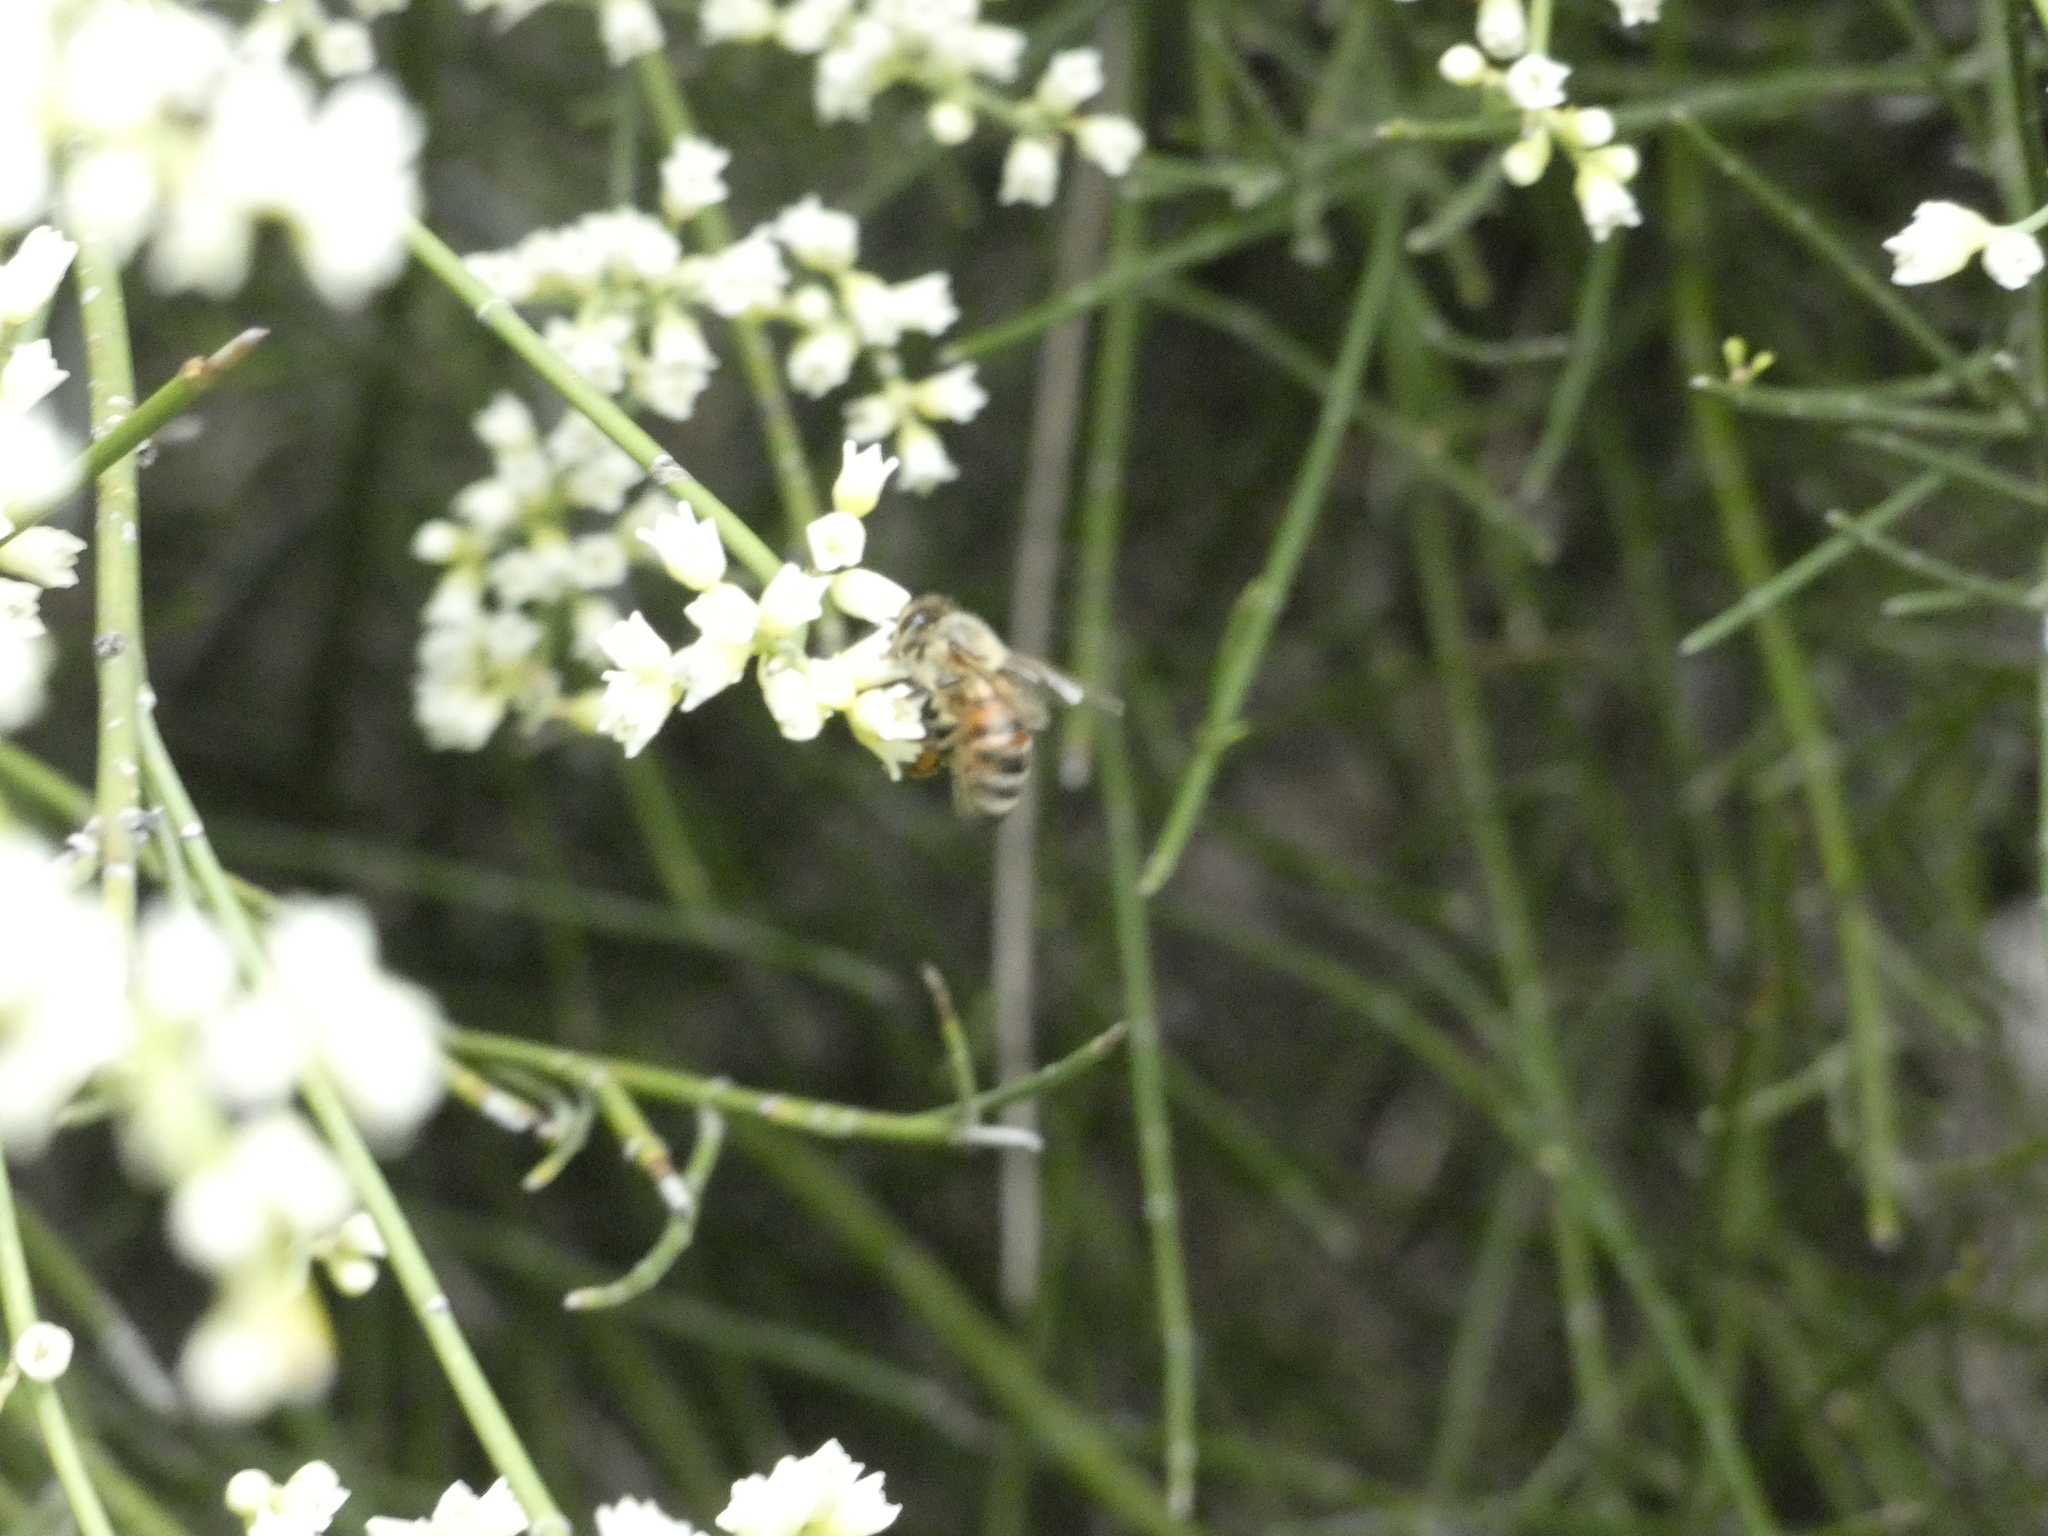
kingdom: Animalia
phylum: Arthropoda
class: Insecta
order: Hymenoptera
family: Apidae
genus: Apis
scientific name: Apis mellifera
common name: Honey bee
